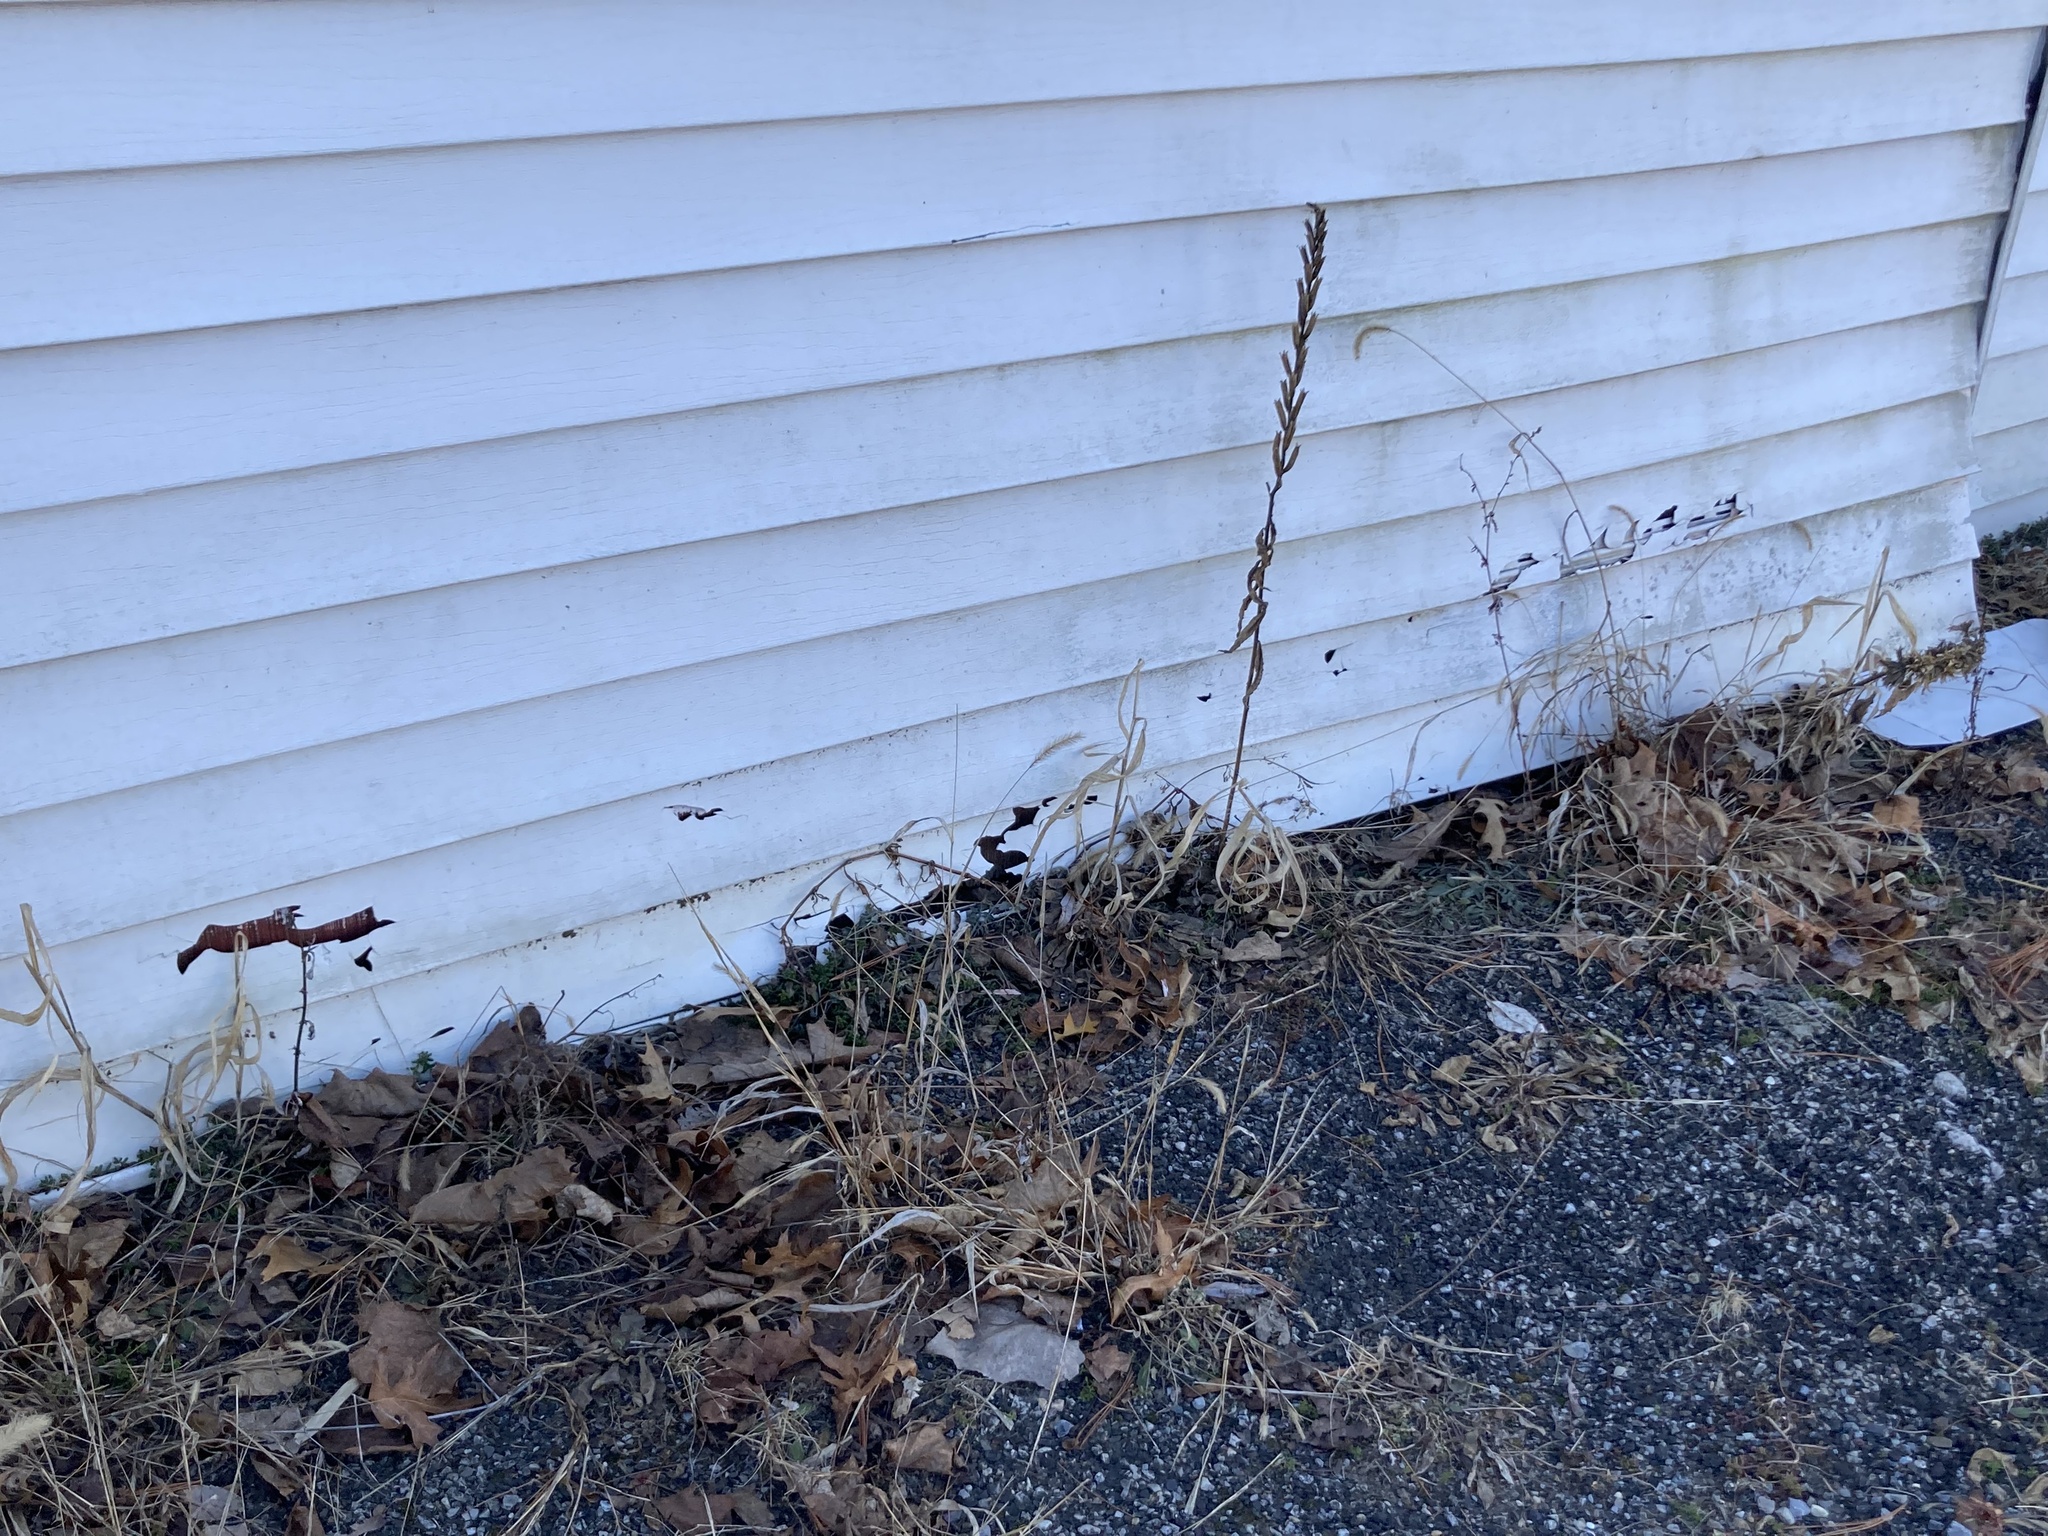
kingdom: Plantae
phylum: Tracheophyta
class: Magnoliopsida
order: Myrtales
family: Onagraceae
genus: Oenothera
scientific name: Oenothera biennis
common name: Common evening-primrose
